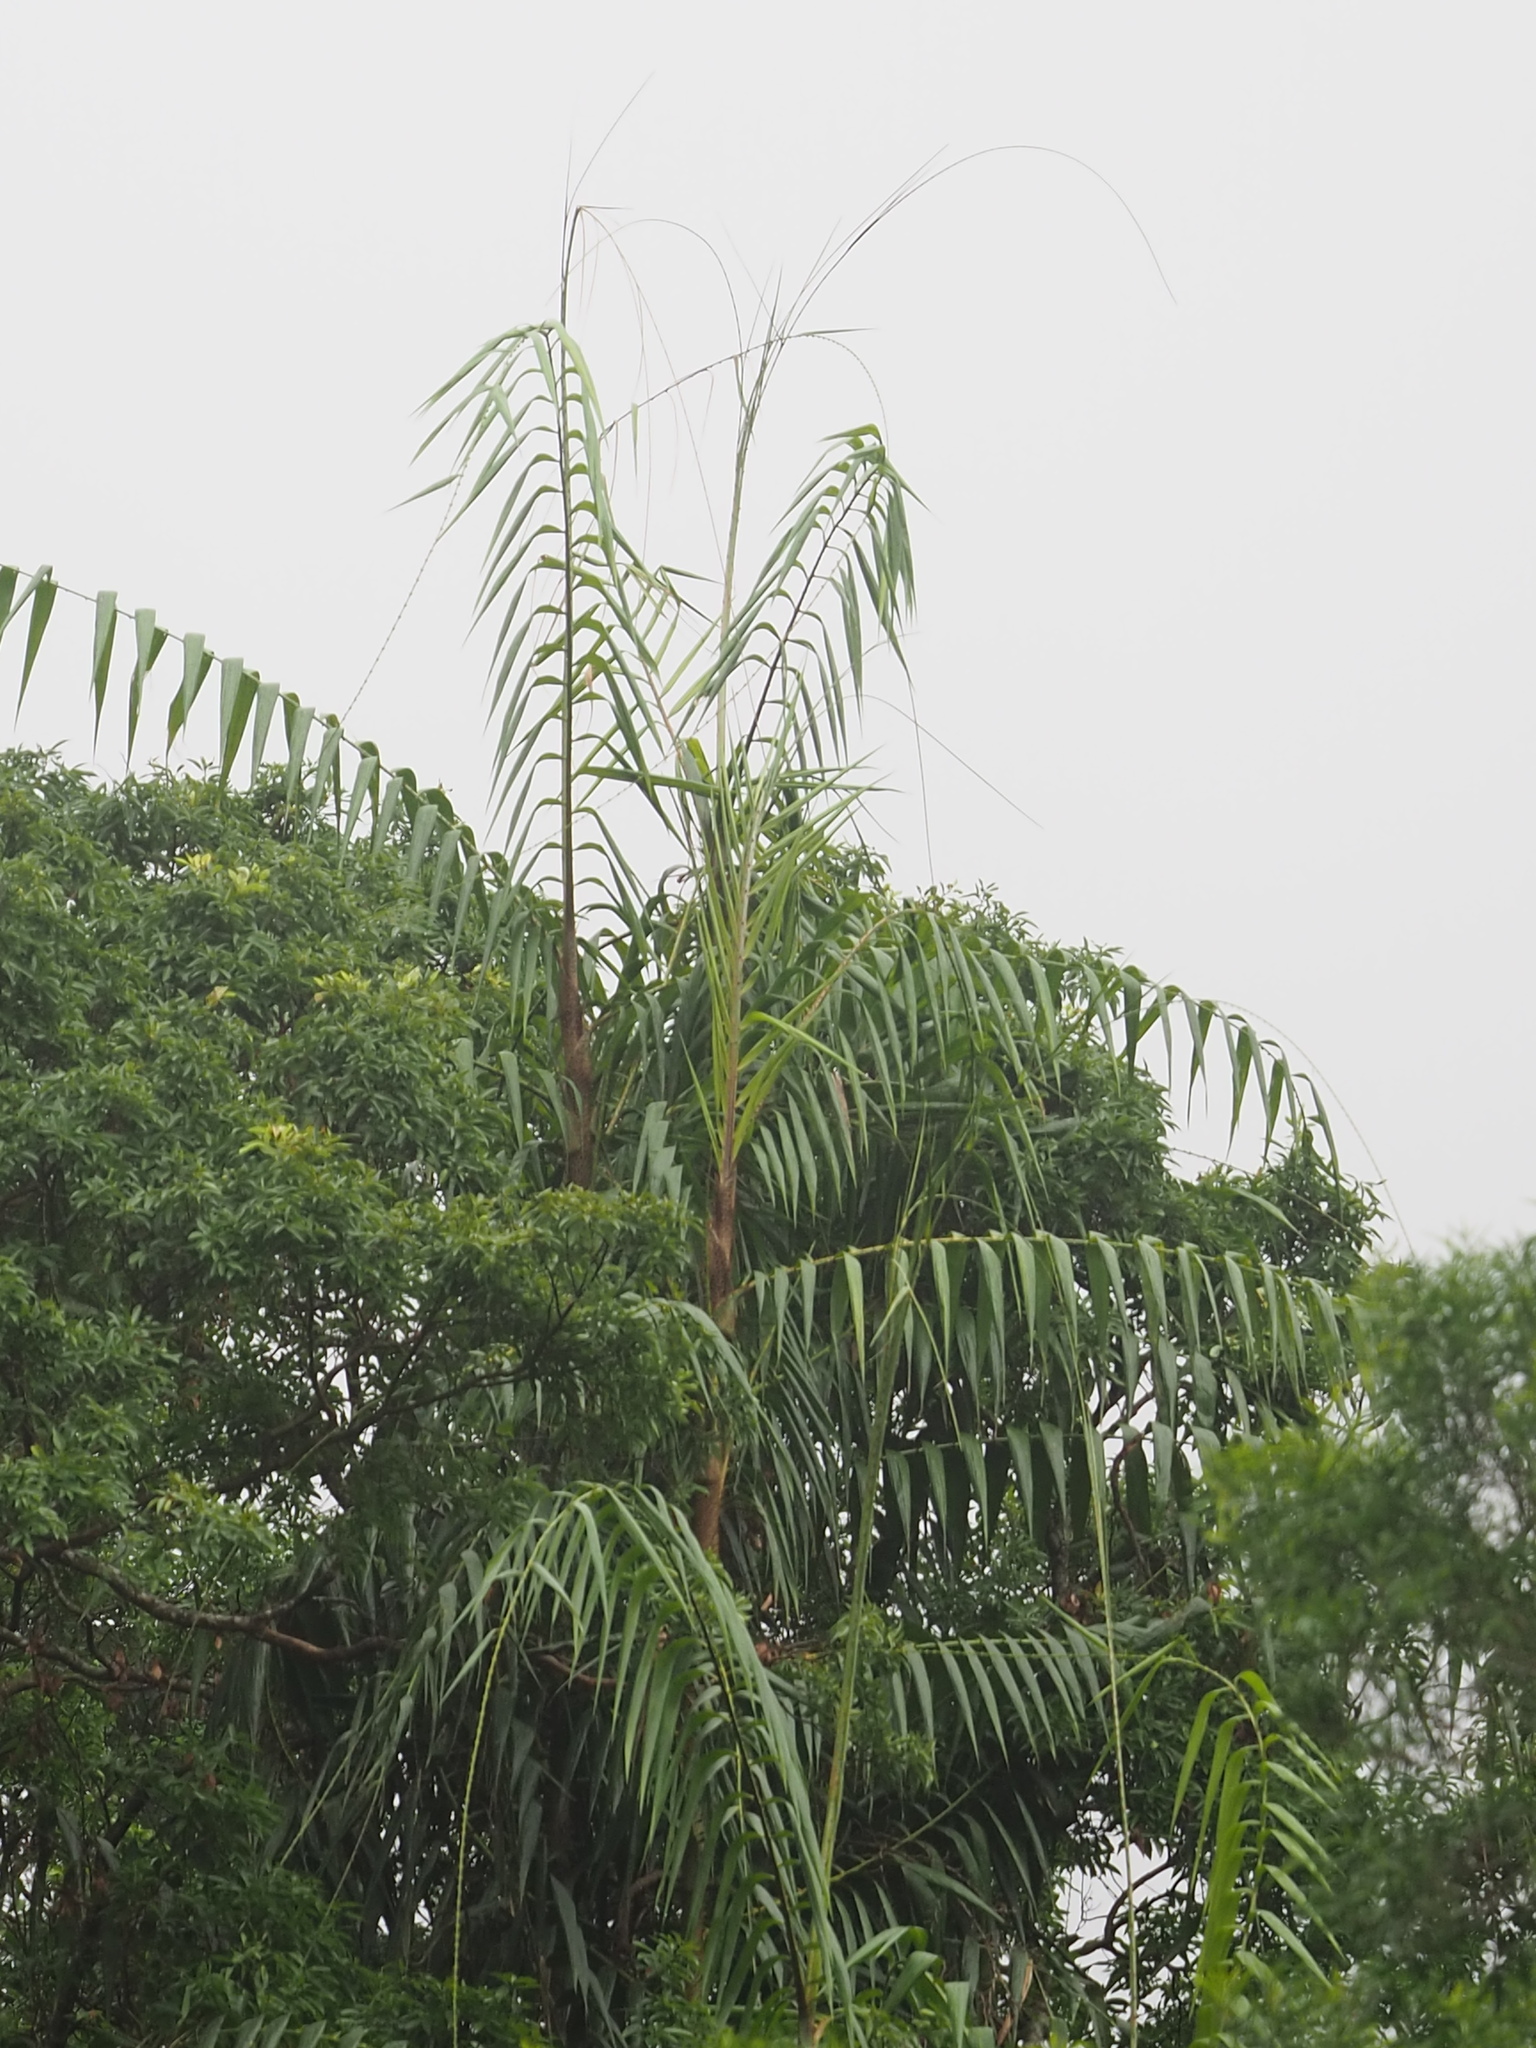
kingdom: Plantae
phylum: Tracheophyta
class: Liliopsida
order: Arecales
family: Arecaceae
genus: Calamus
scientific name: Calamus formosanus
